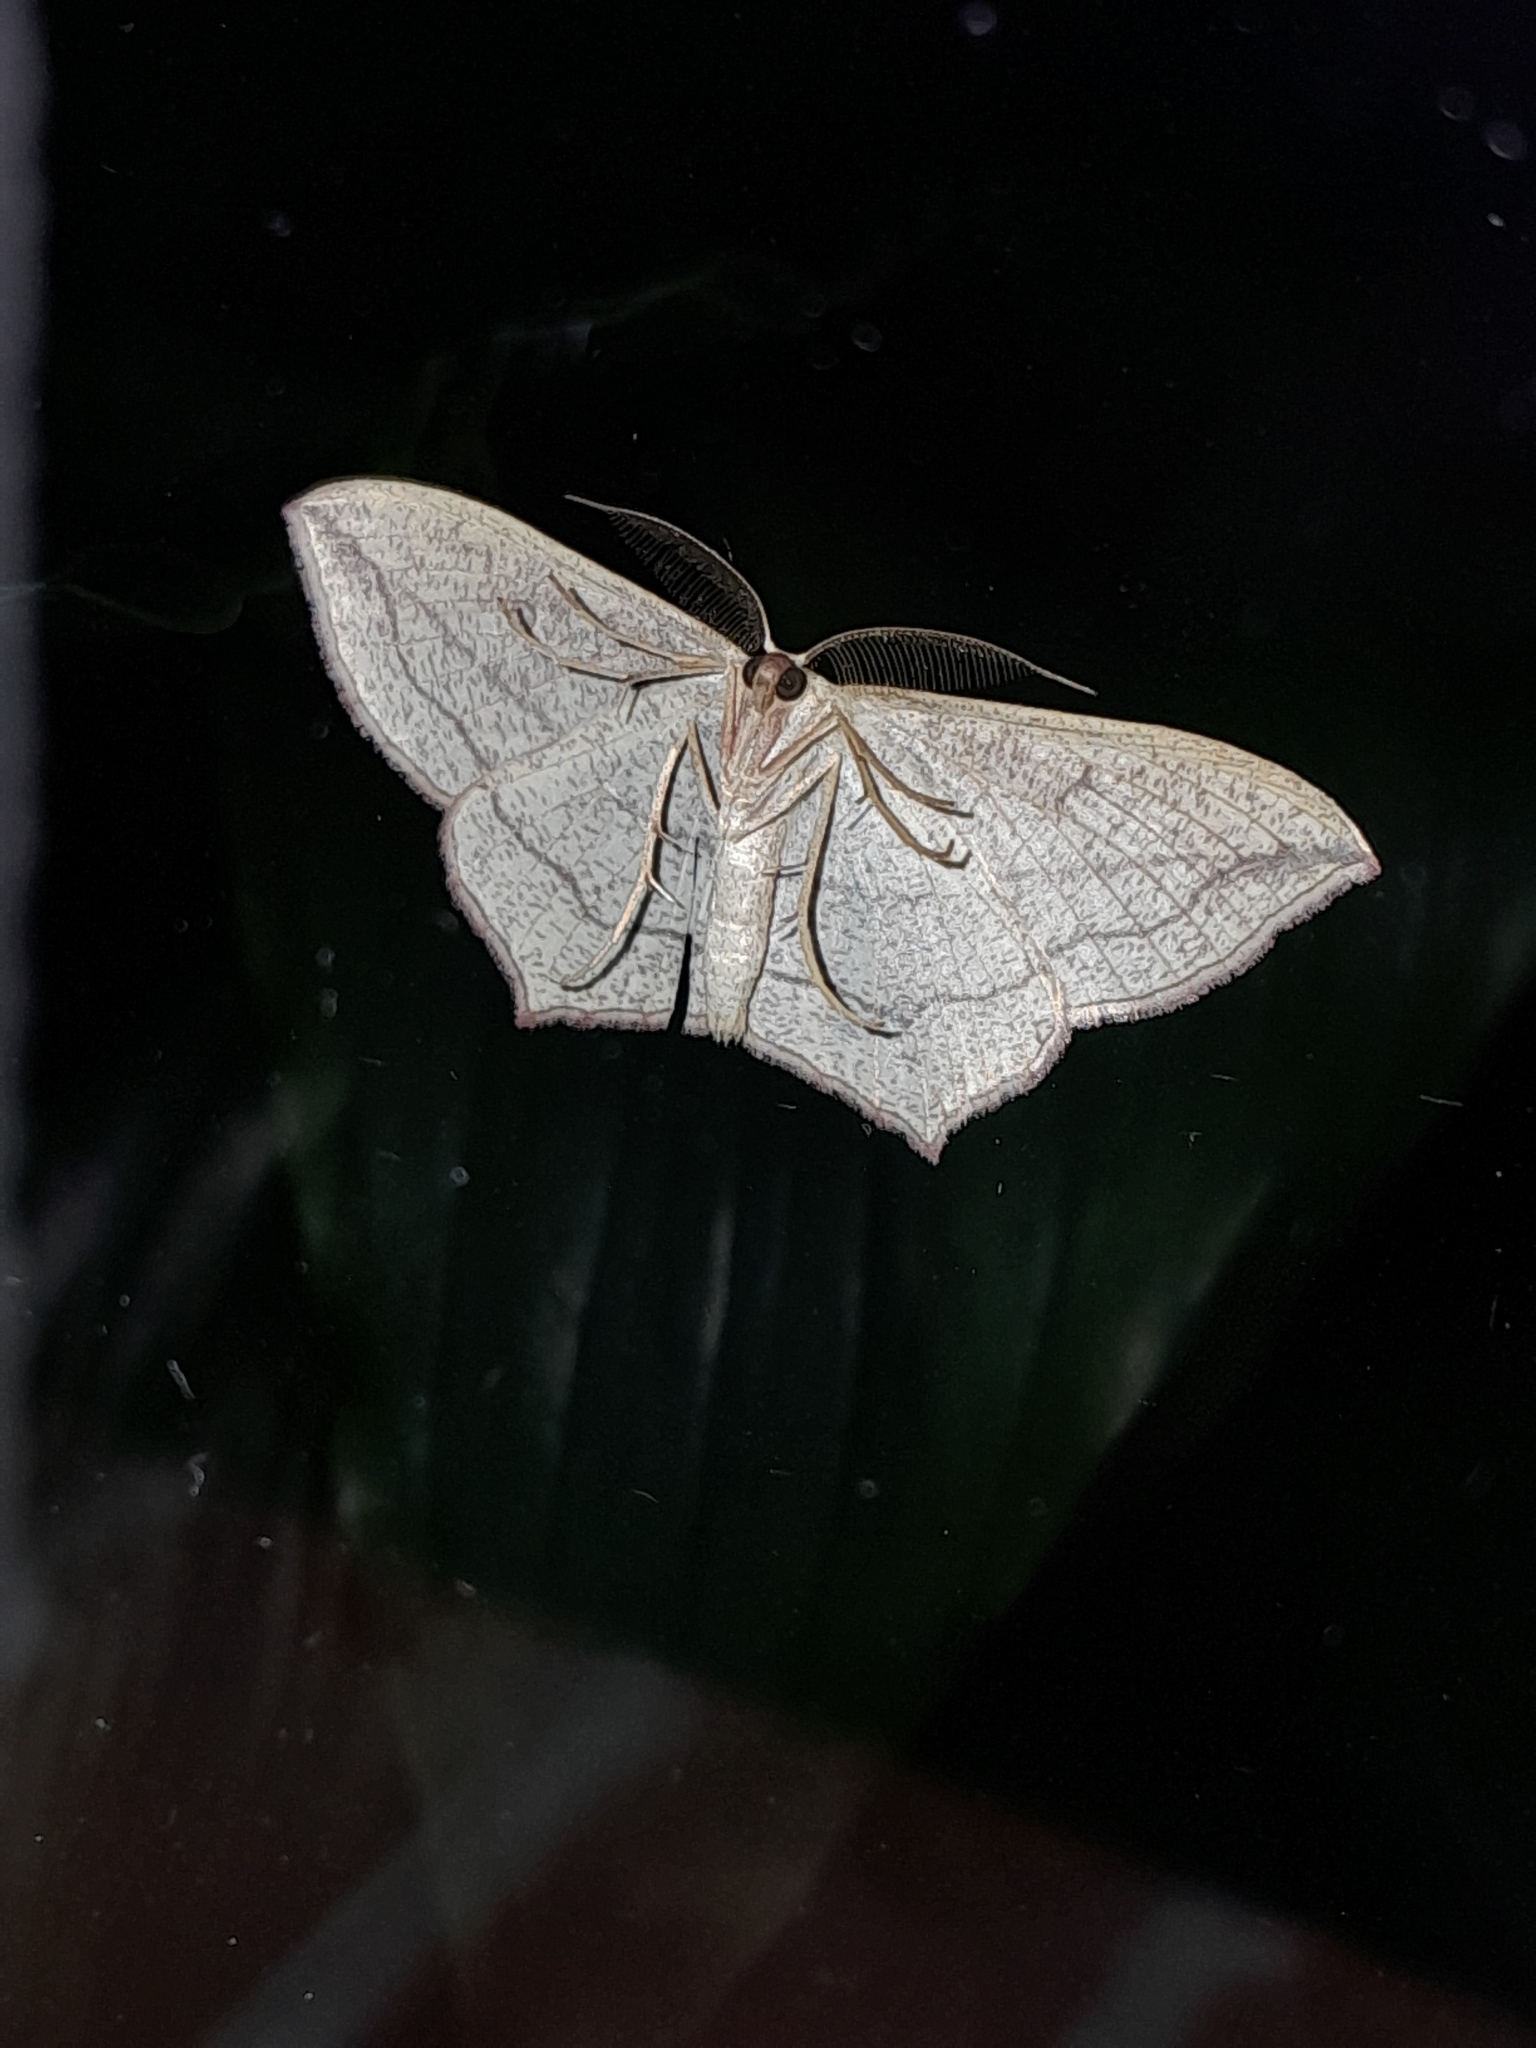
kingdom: Animalia
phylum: Arthropoda
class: Insecta
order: Lepidoptera
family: Geometridae
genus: Timandra
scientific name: Timandra comae
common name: Blood-vein
